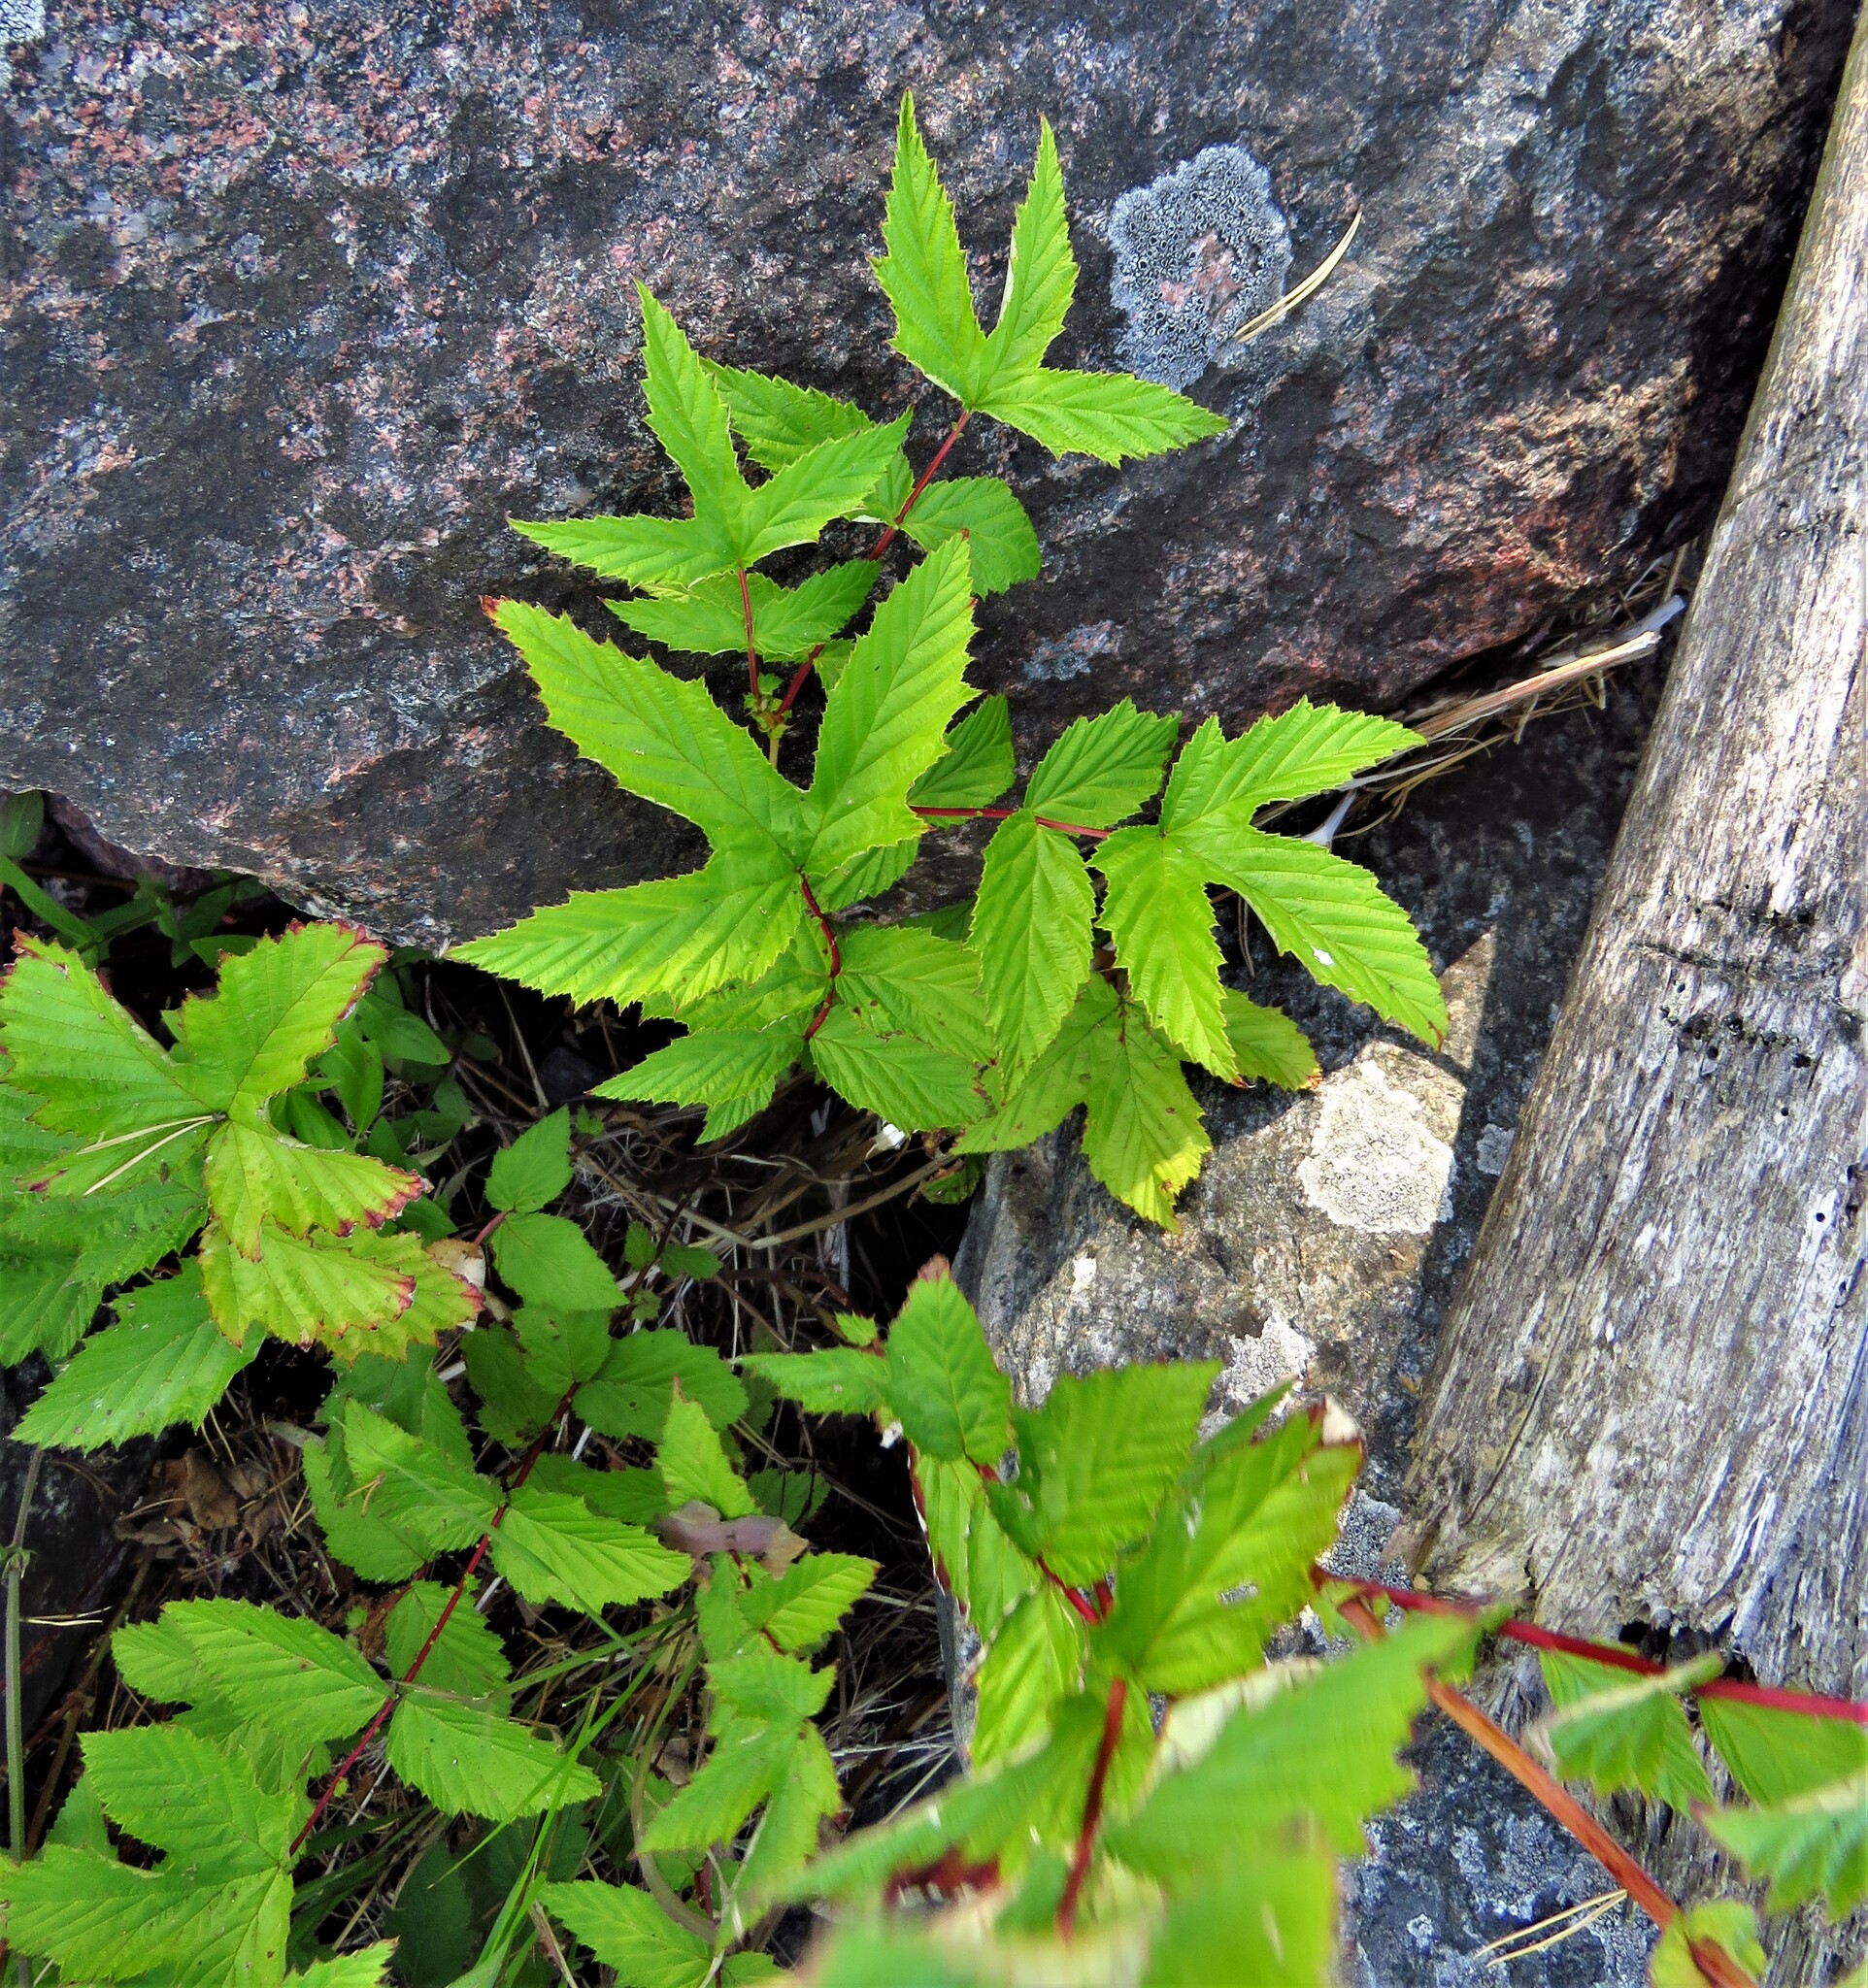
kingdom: Plantae
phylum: Tracheophyta
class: Magnoliopsida
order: Rosales
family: Rosaceae
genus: Filipendula
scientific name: Filipendula ulmaria
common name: Meadowsweet
